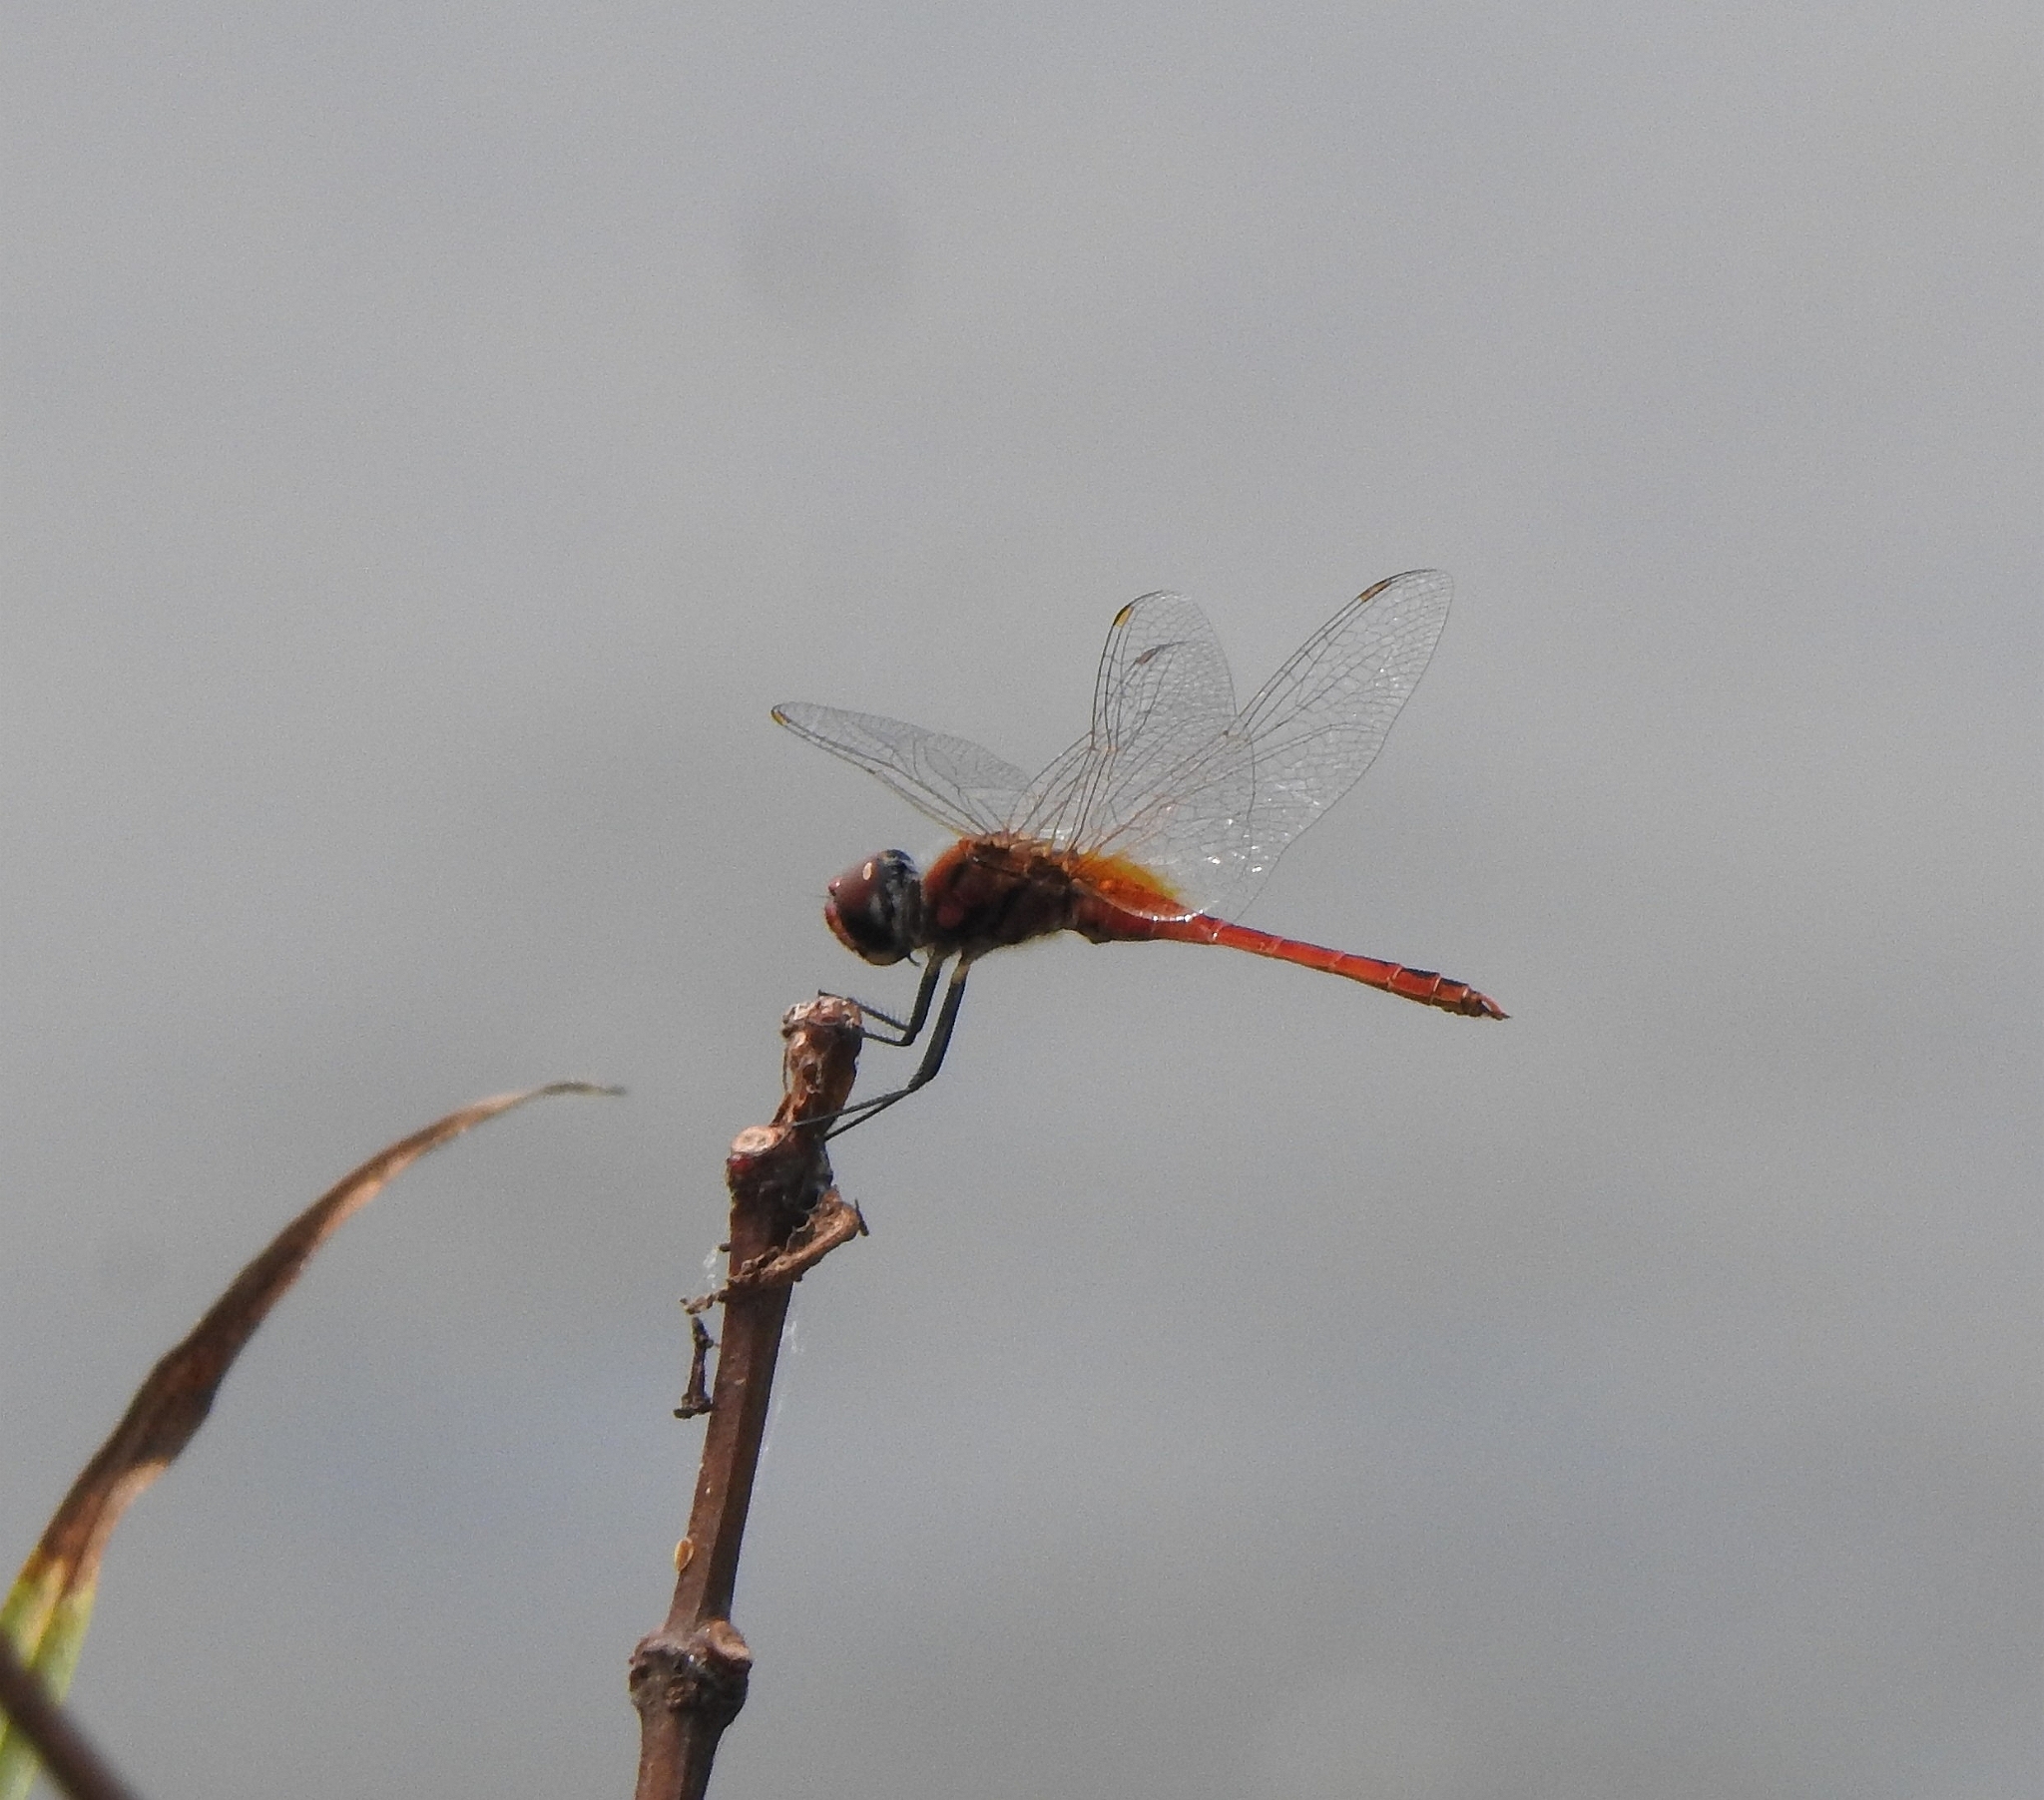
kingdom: Animalia
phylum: Arthropoda
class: Insecta
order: Odonata
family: Libellulidae
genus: Macrodiplax
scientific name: Macrodiplax cora
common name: Coastal glider
